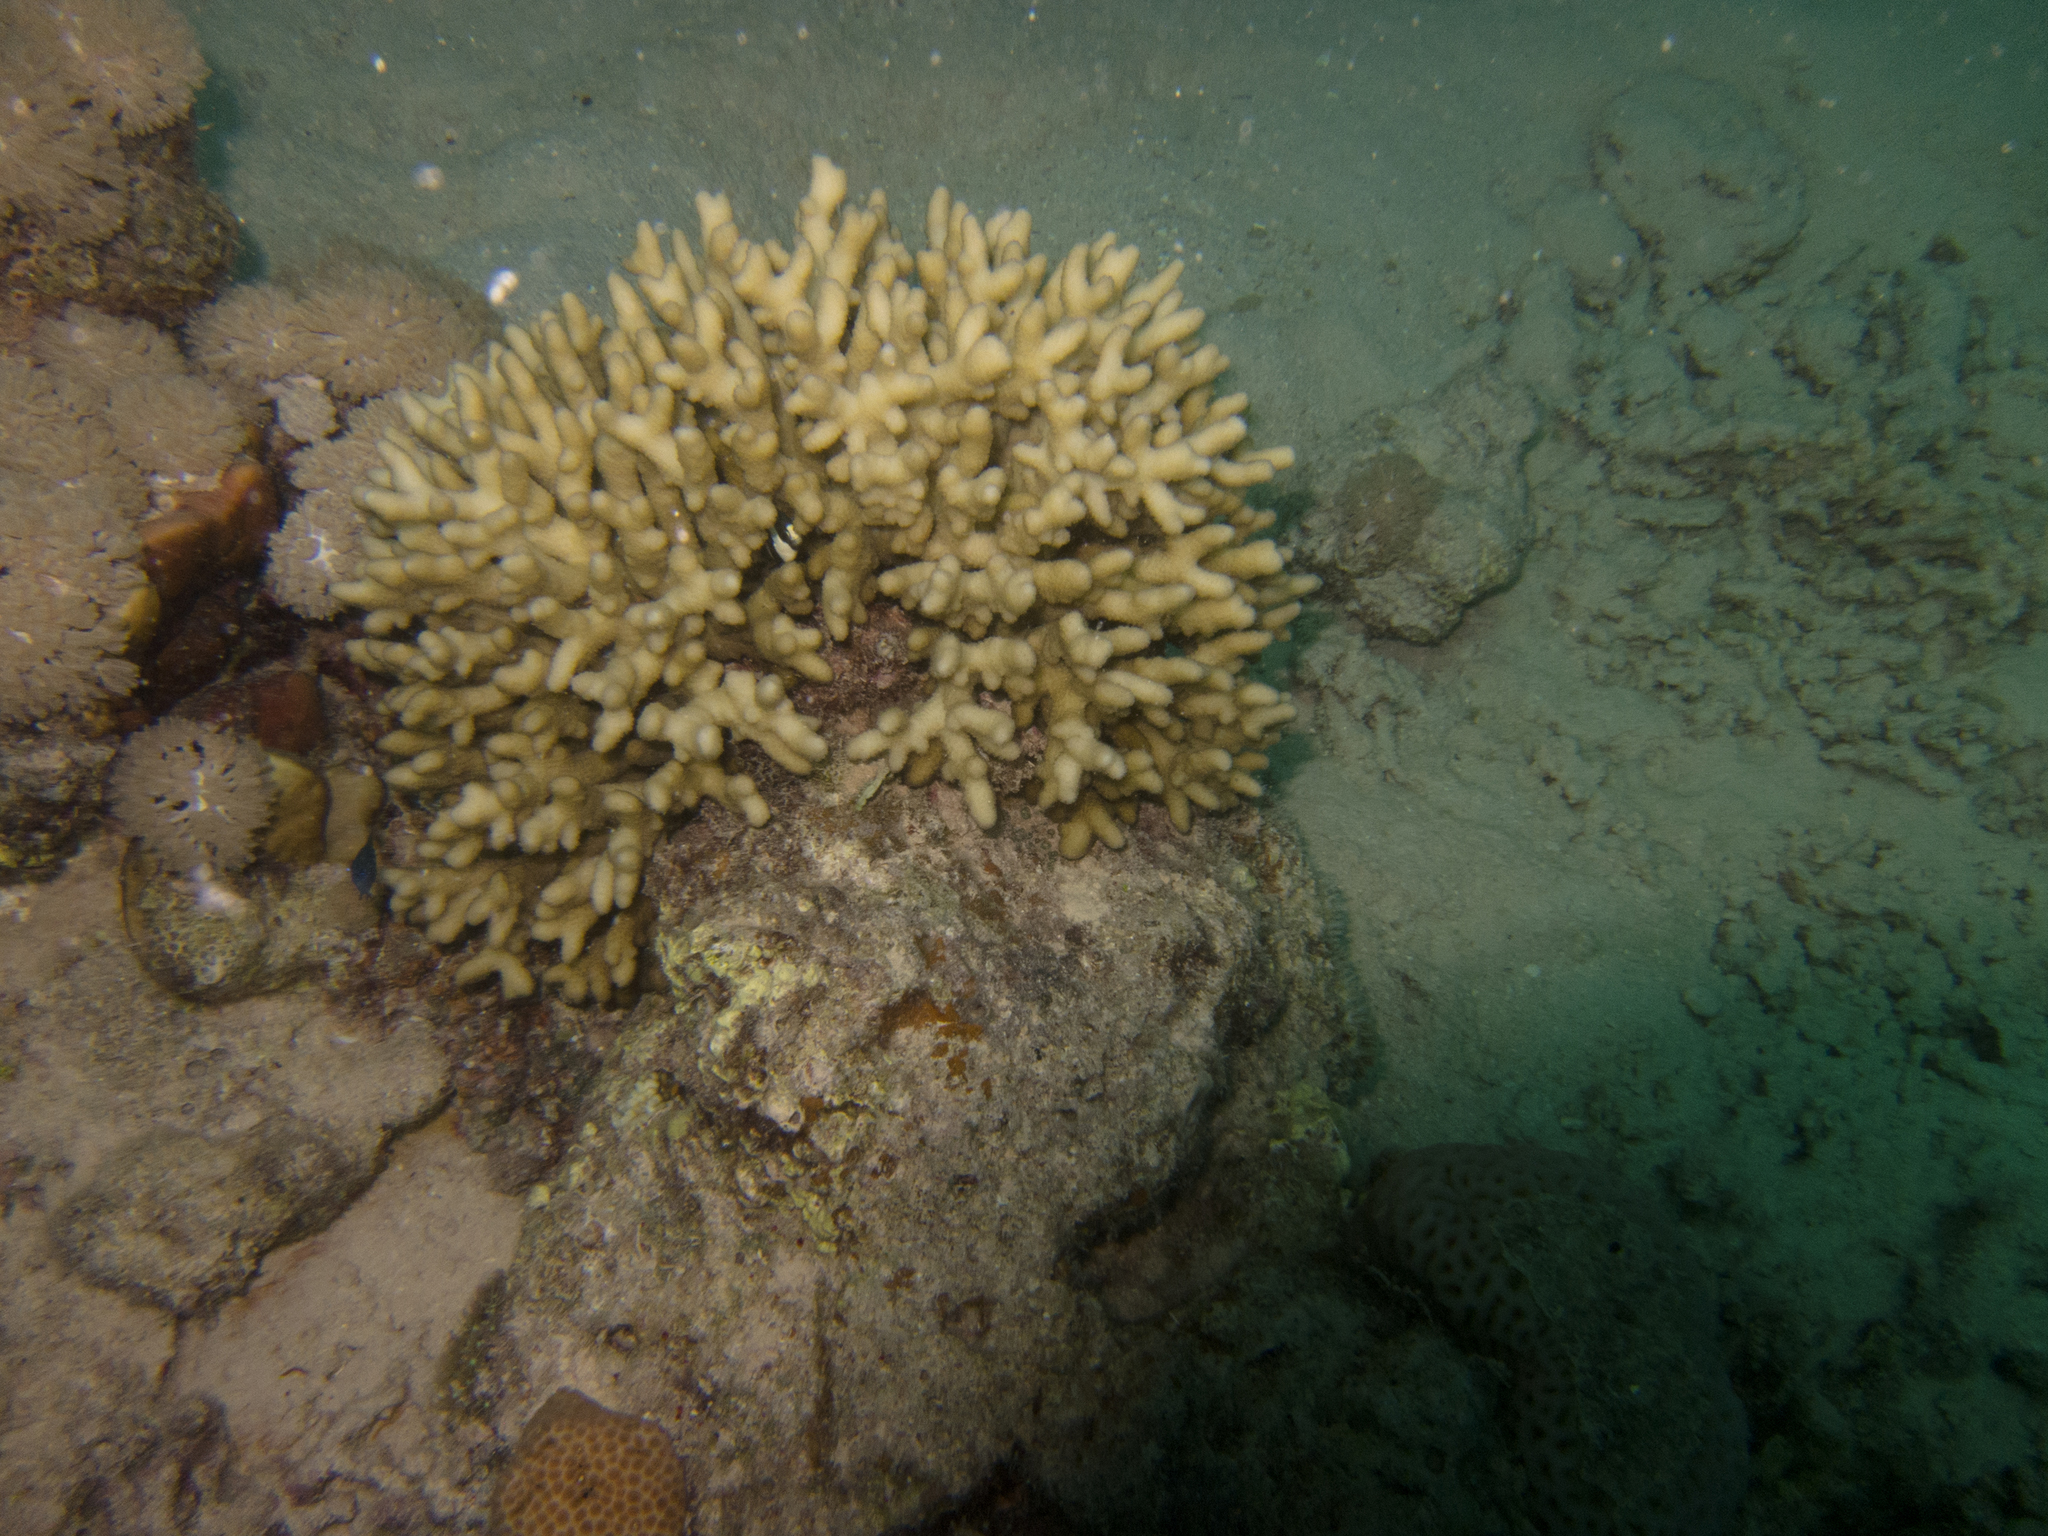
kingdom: Animalia
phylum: Chordata
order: Perciformes
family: Pomacentridae
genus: Dascyllus
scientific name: Dascyllus abudafur
